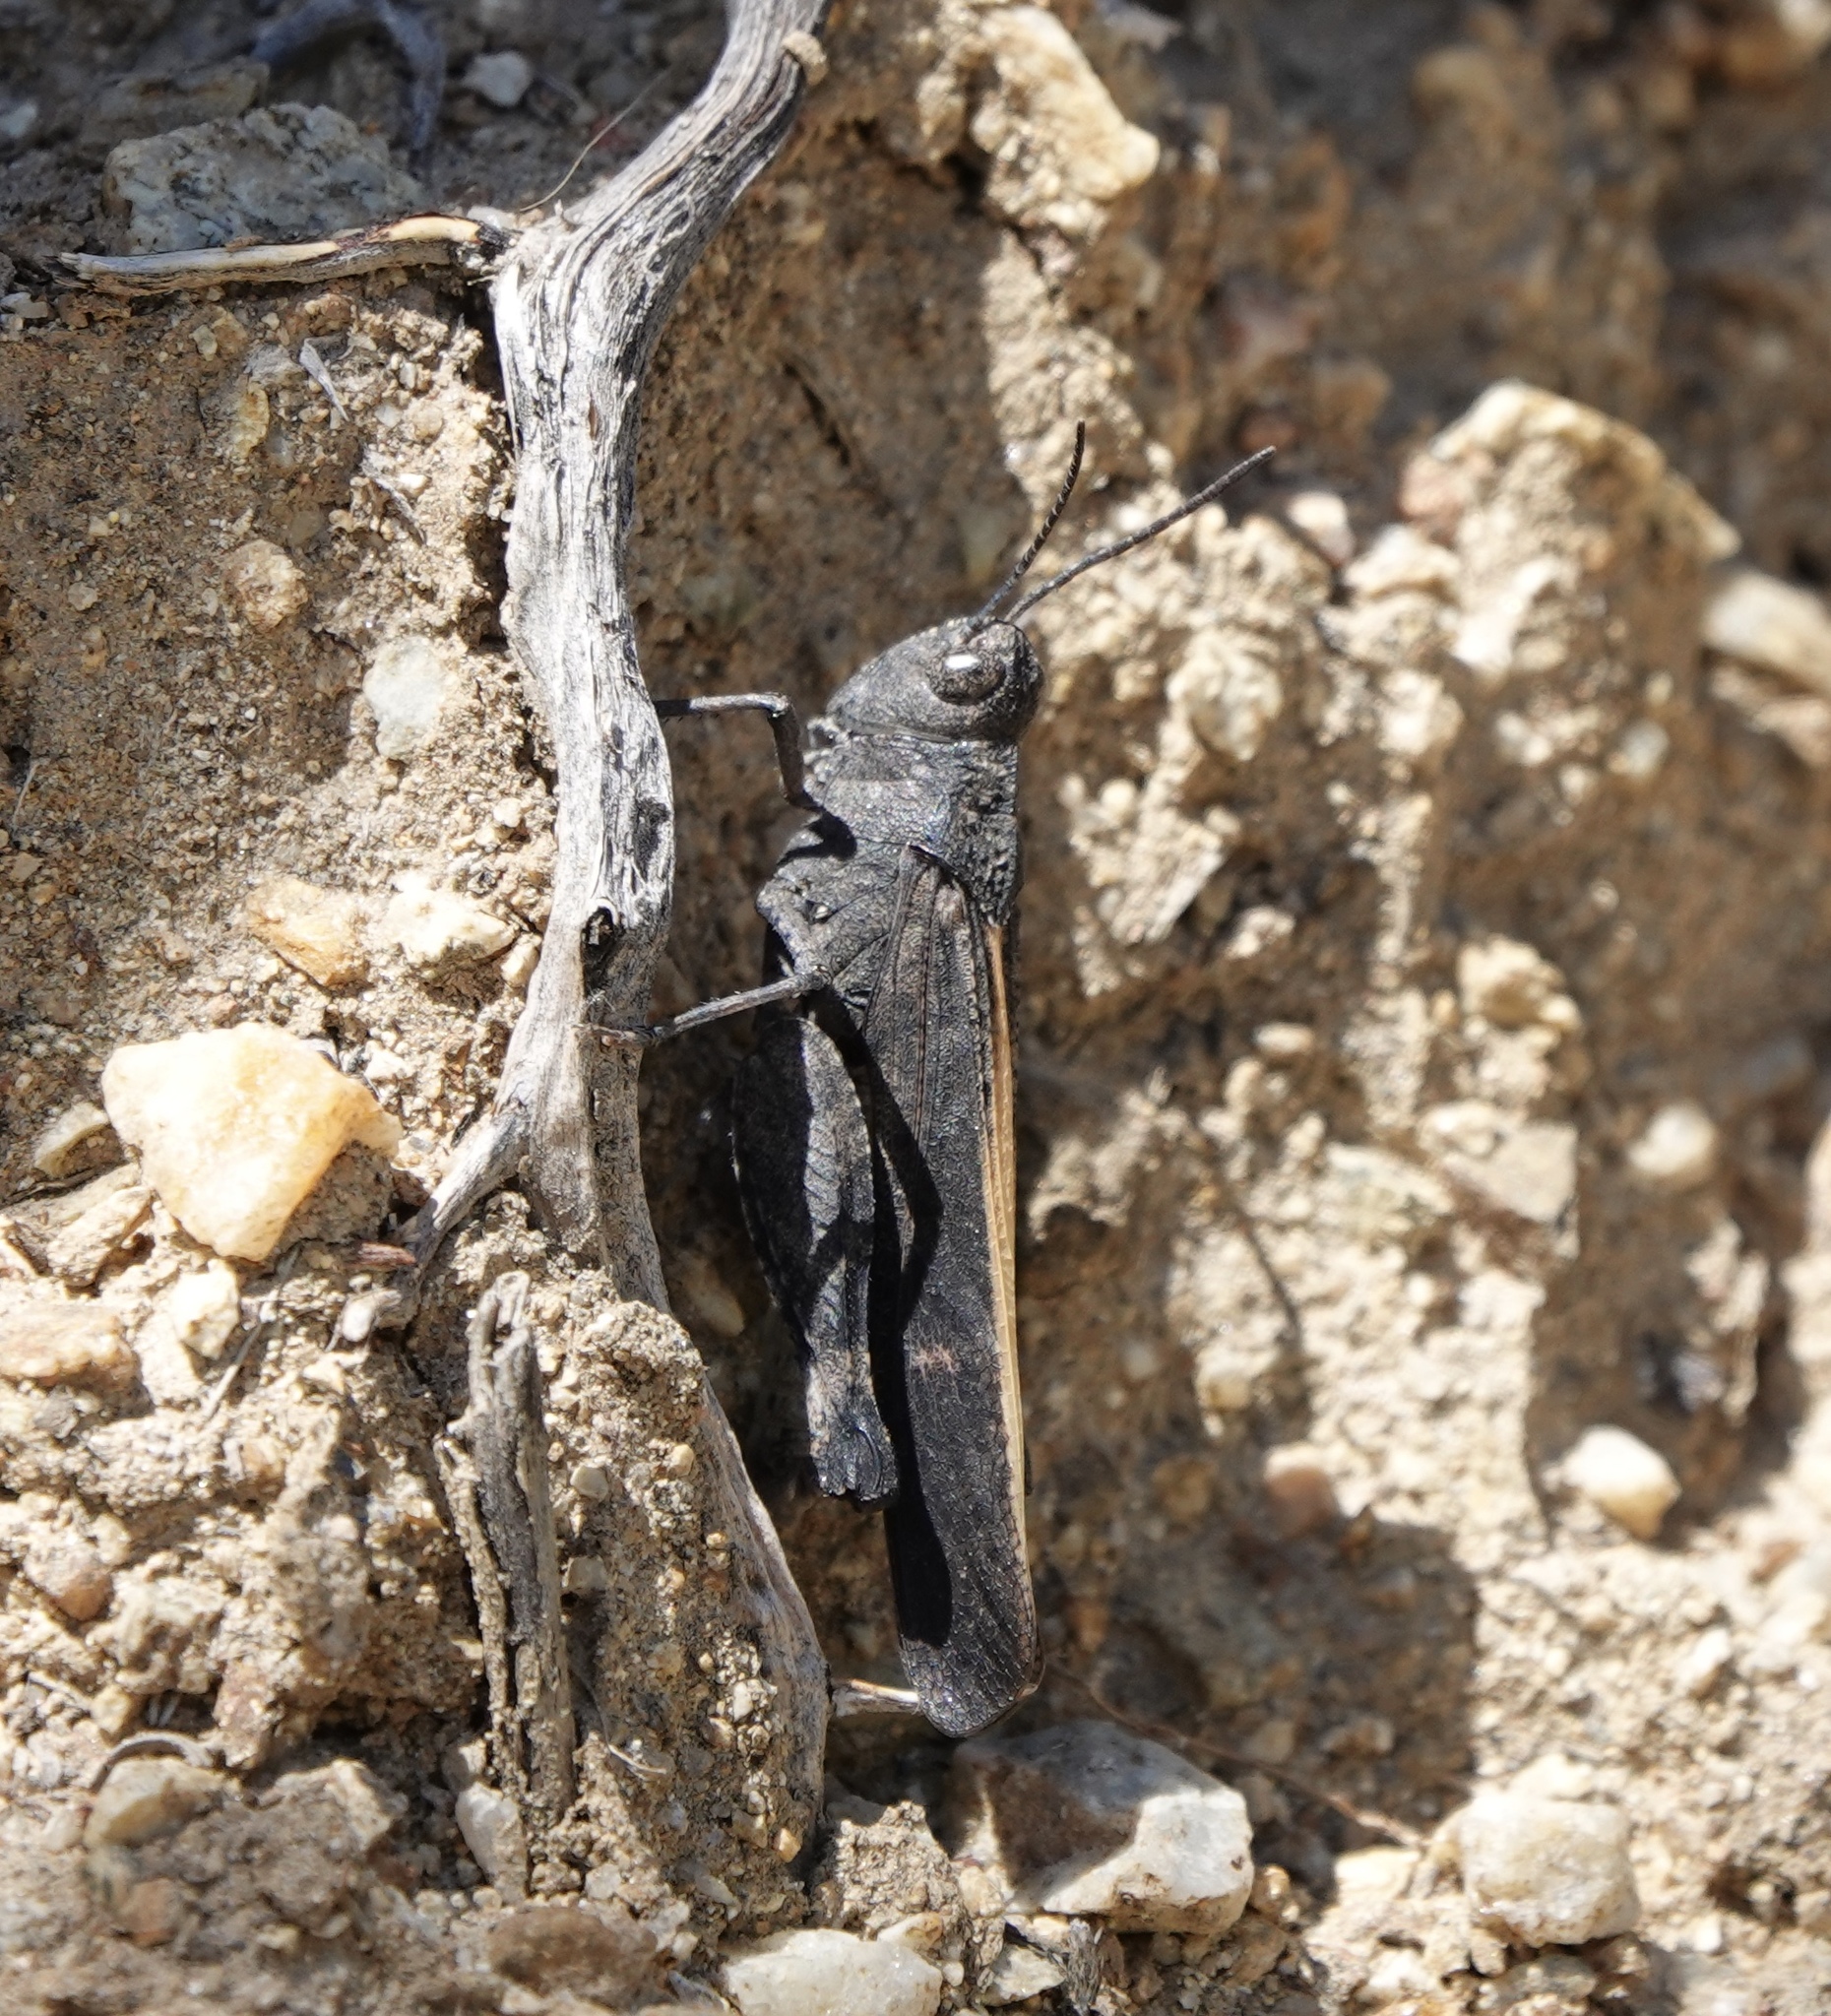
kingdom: Animalia
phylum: Arthropoda
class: Insecta
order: Orthoptera
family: Acrididae
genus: Arphia
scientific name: Arphia ramona
